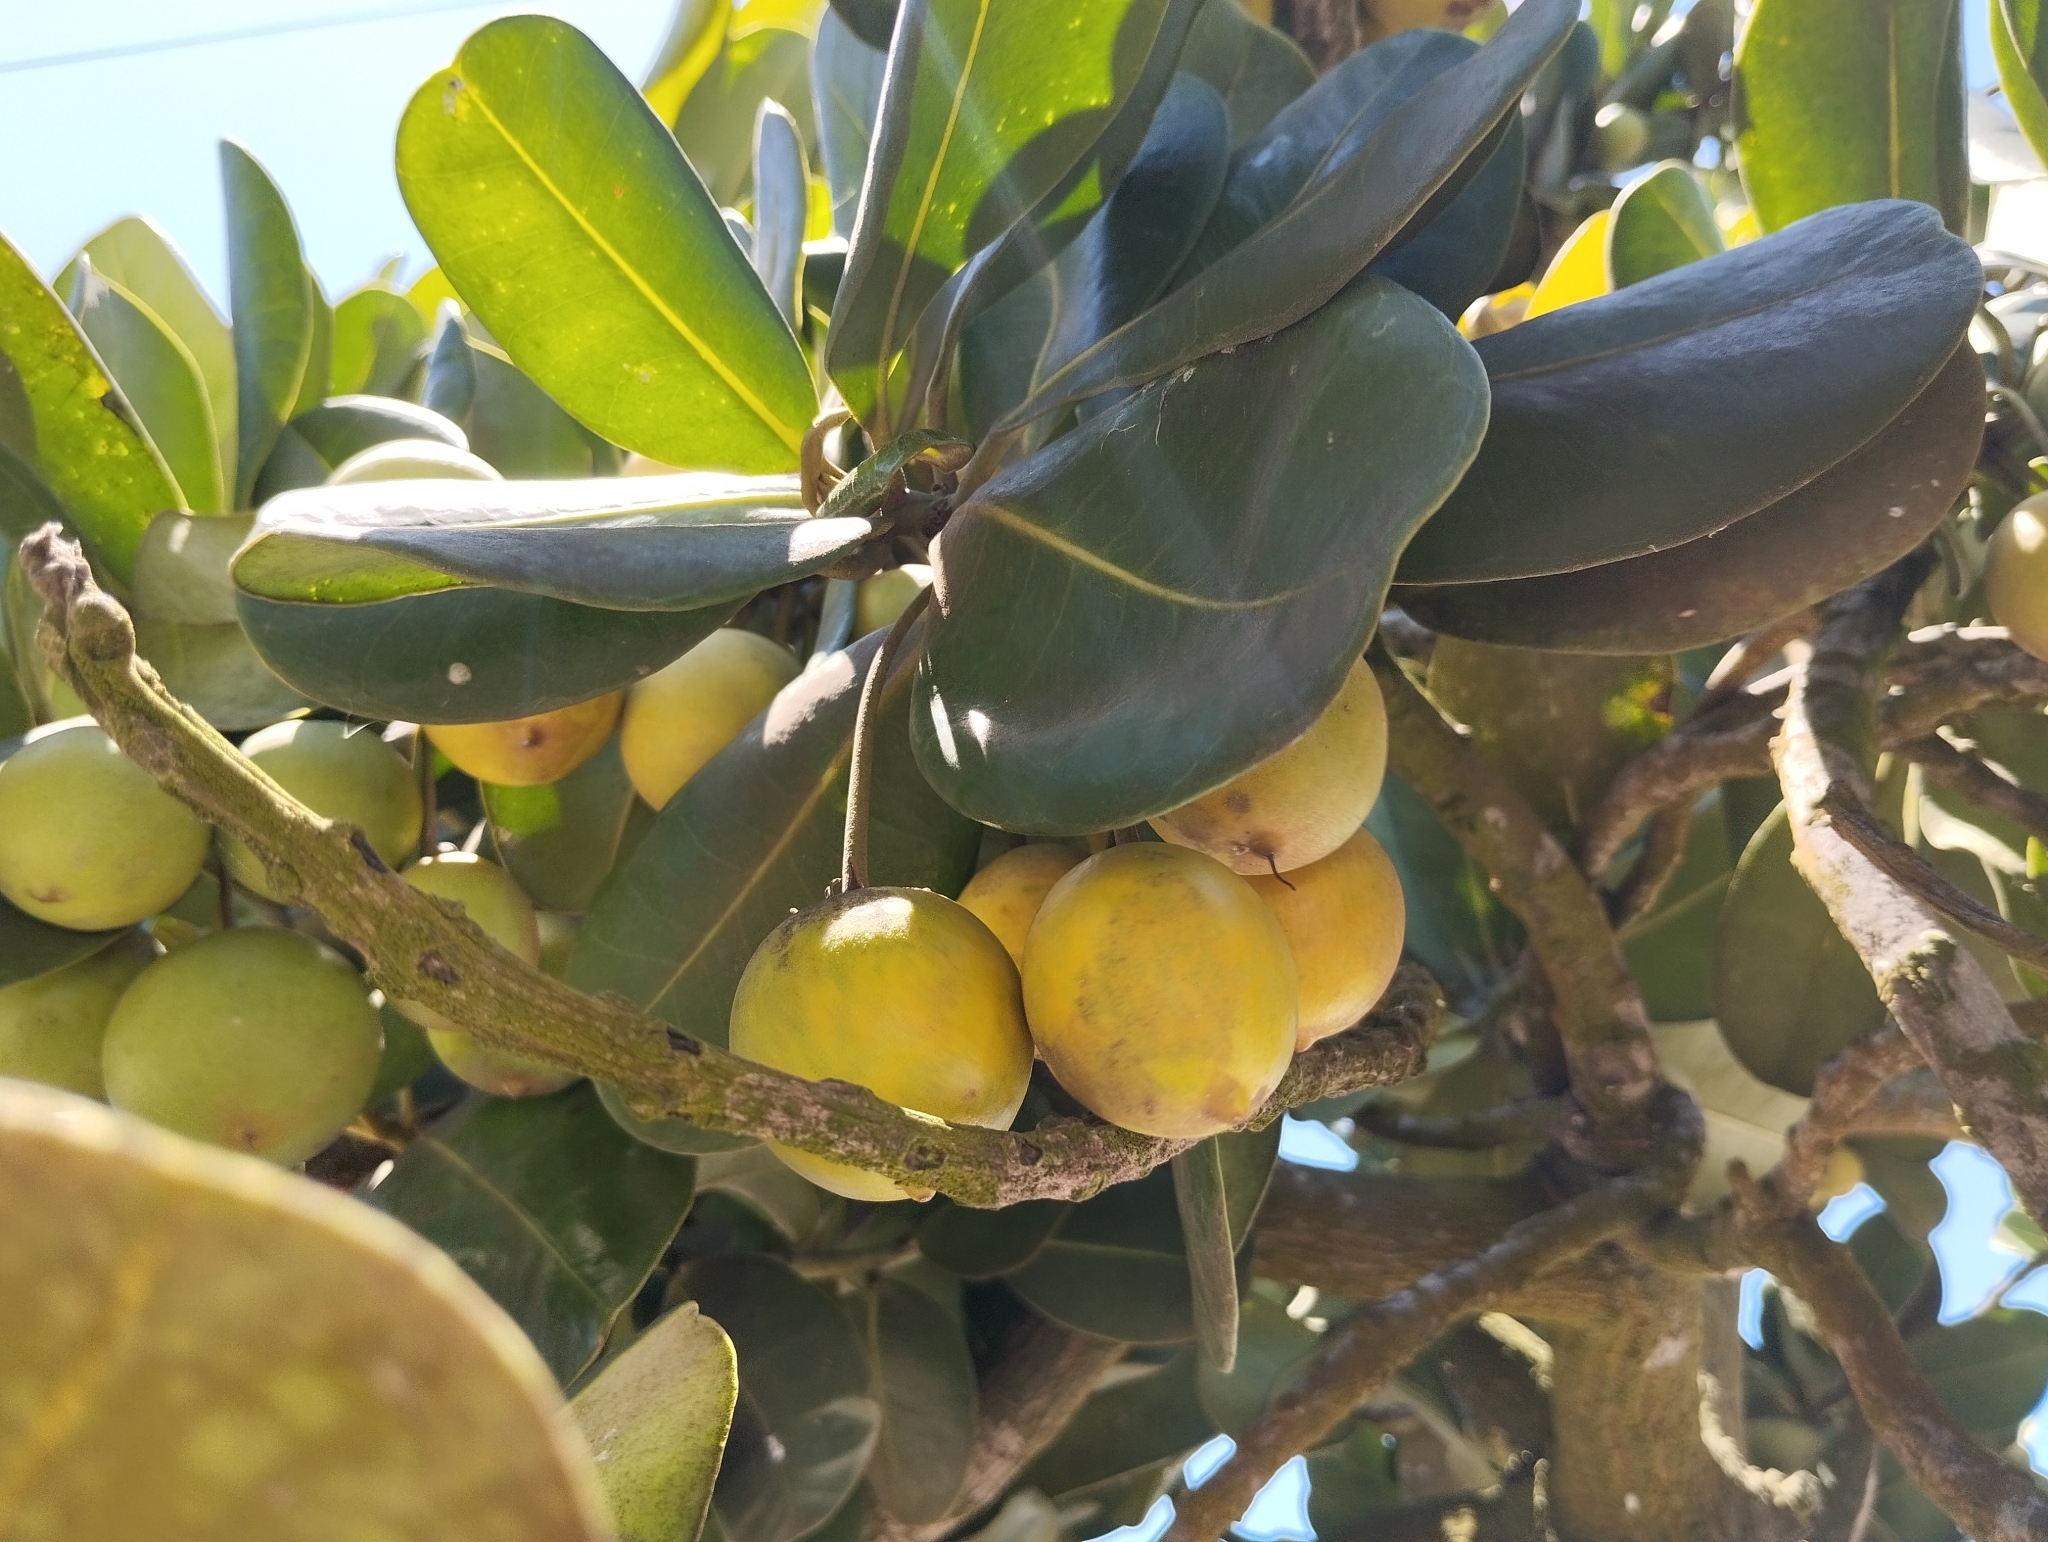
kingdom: Plantae
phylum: Tracheophyta
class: Magnoliopsida
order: Ericales
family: Sapotaceae
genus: Mimusops
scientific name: Mimusops coriacea
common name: Mimusops
